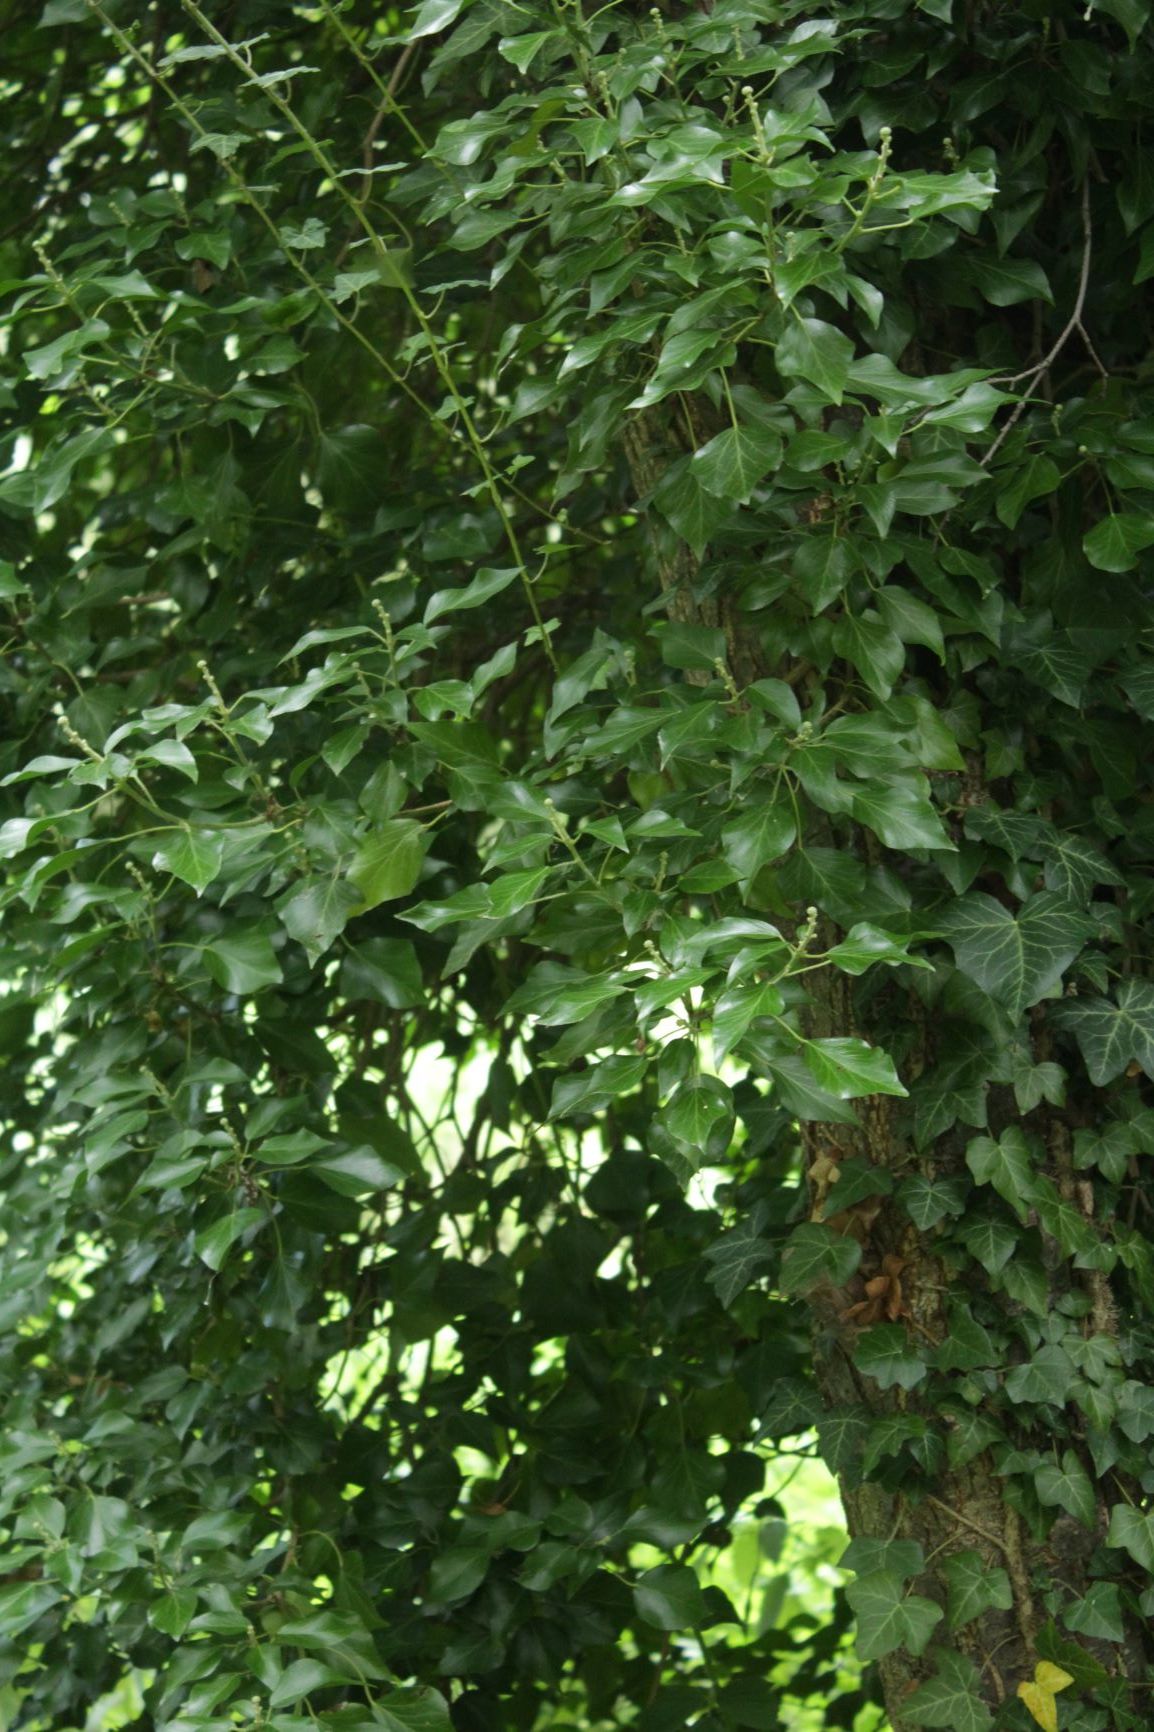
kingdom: Plantae
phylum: Tracheophyta
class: Magnoliopsida
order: Apiales
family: Araliaceae
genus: Hedera
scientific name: Hedera helix
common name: Ivy
